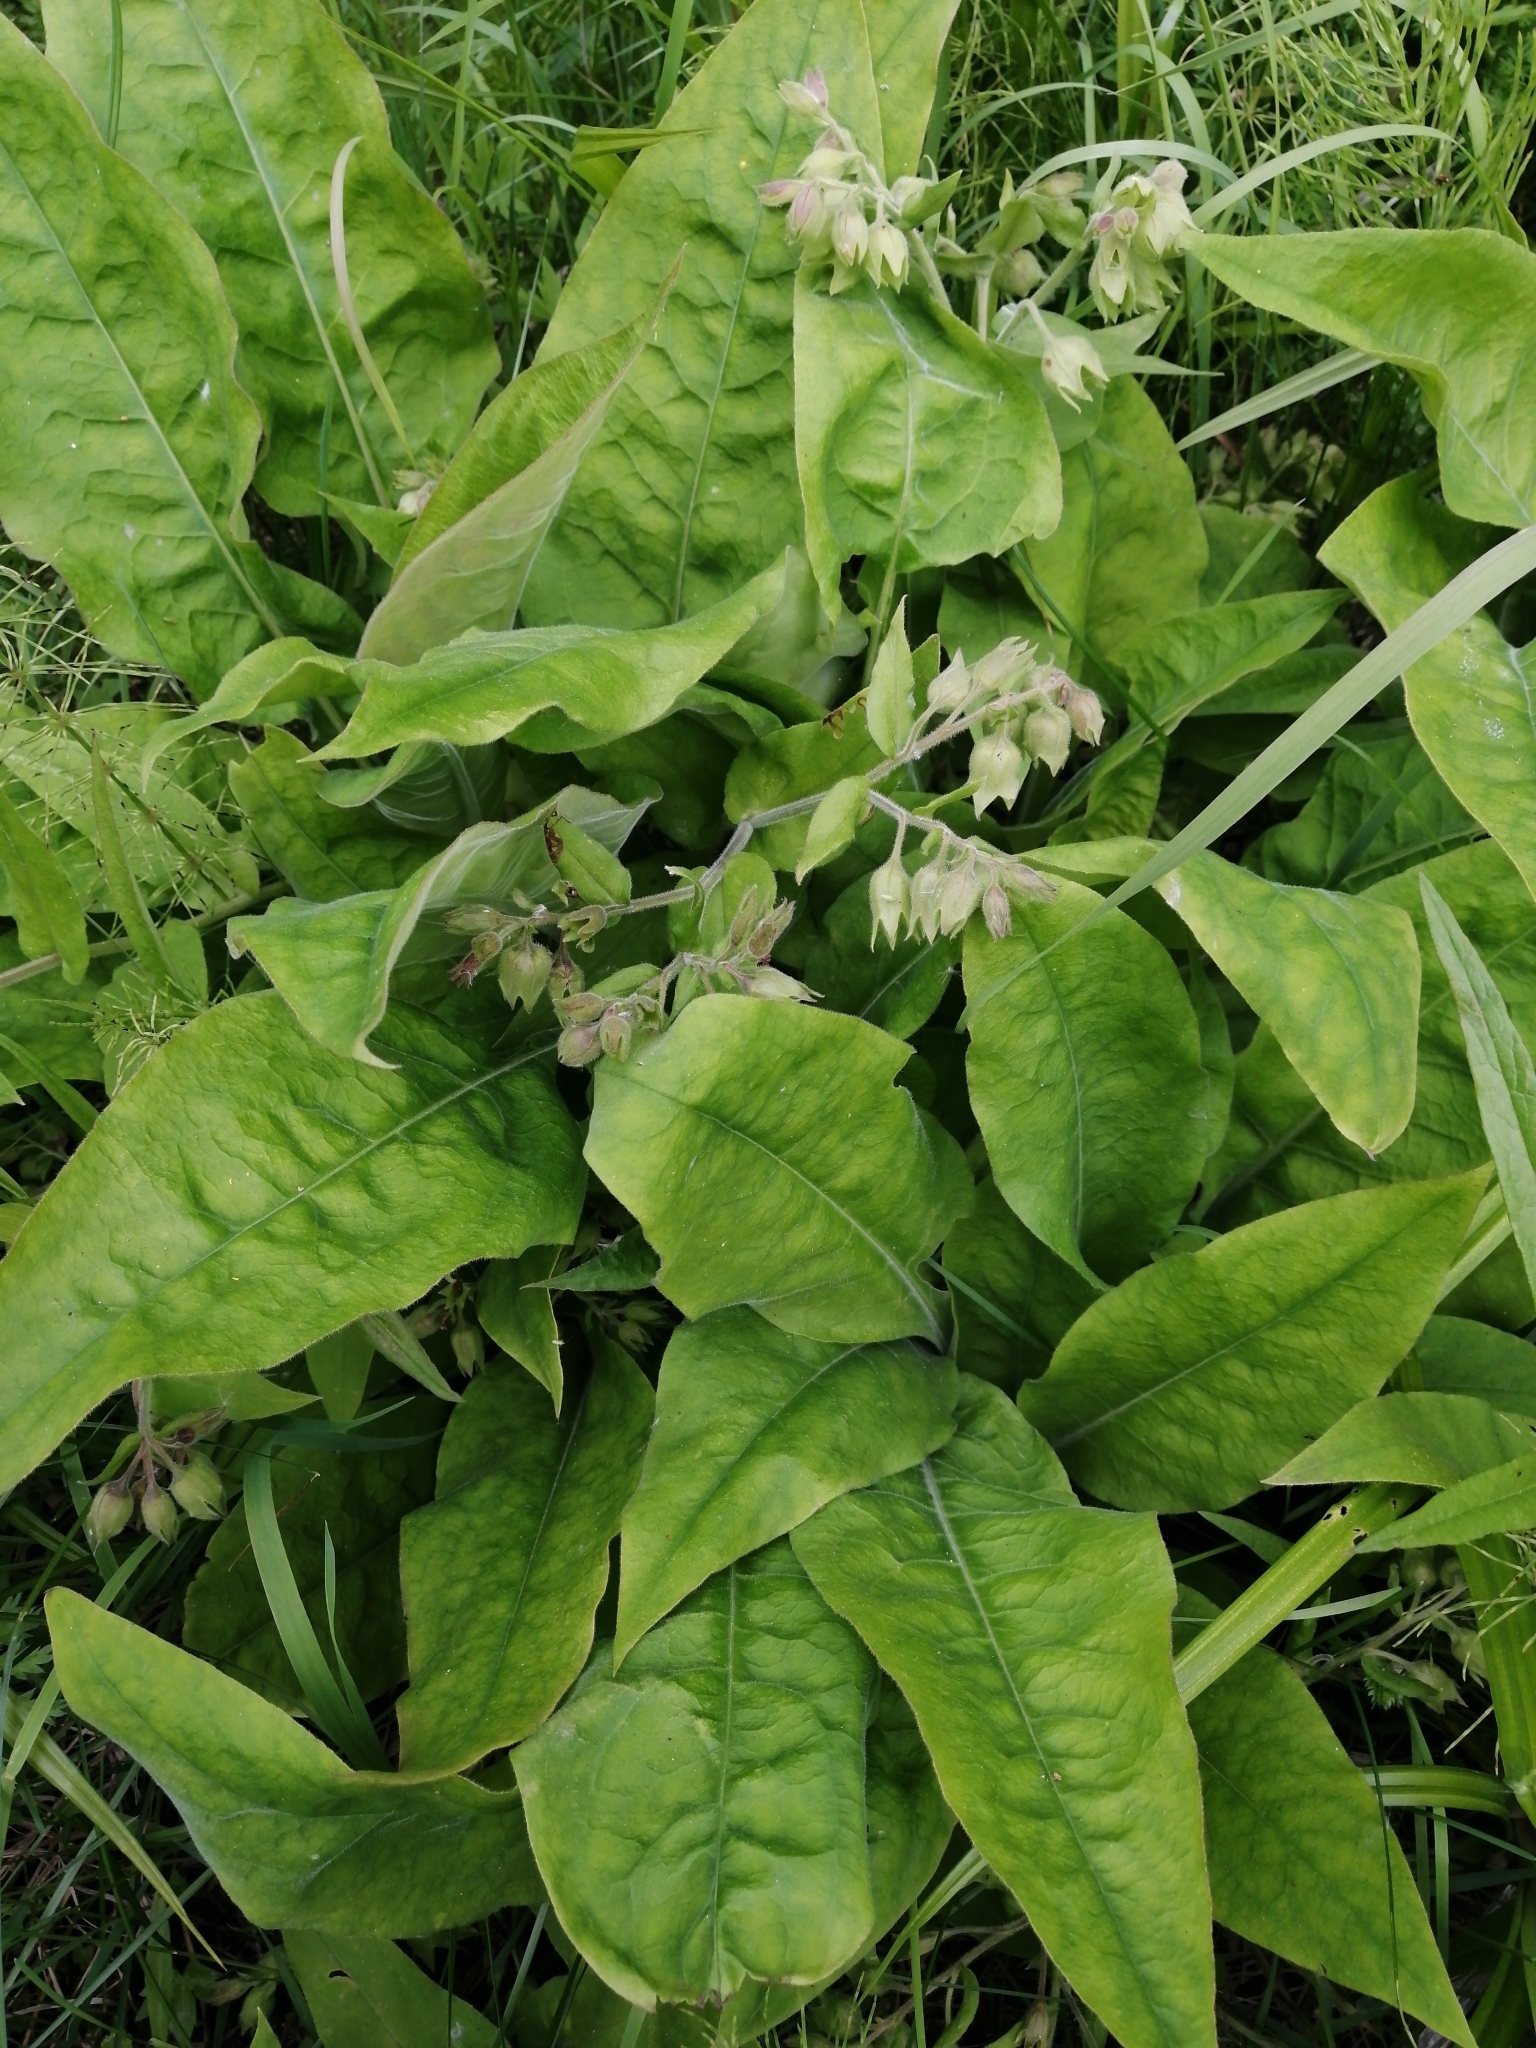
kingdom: Plantae
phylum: Tracheophyta
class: Magnoliopsida
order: Boraginales
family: Boraginaceae
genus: Pulmonaria
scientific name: Pulmonaria mollis
